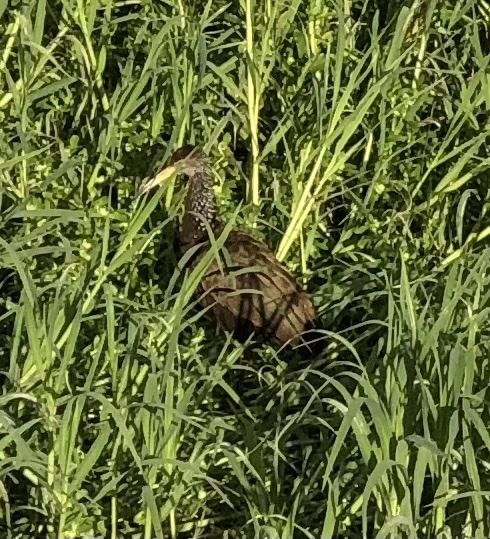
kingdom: Animalia
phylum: Chordata
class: Aves
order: Gruiformes
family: Aramidae
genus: Aramus
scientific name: Aramus guarauna
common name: Limpkin
